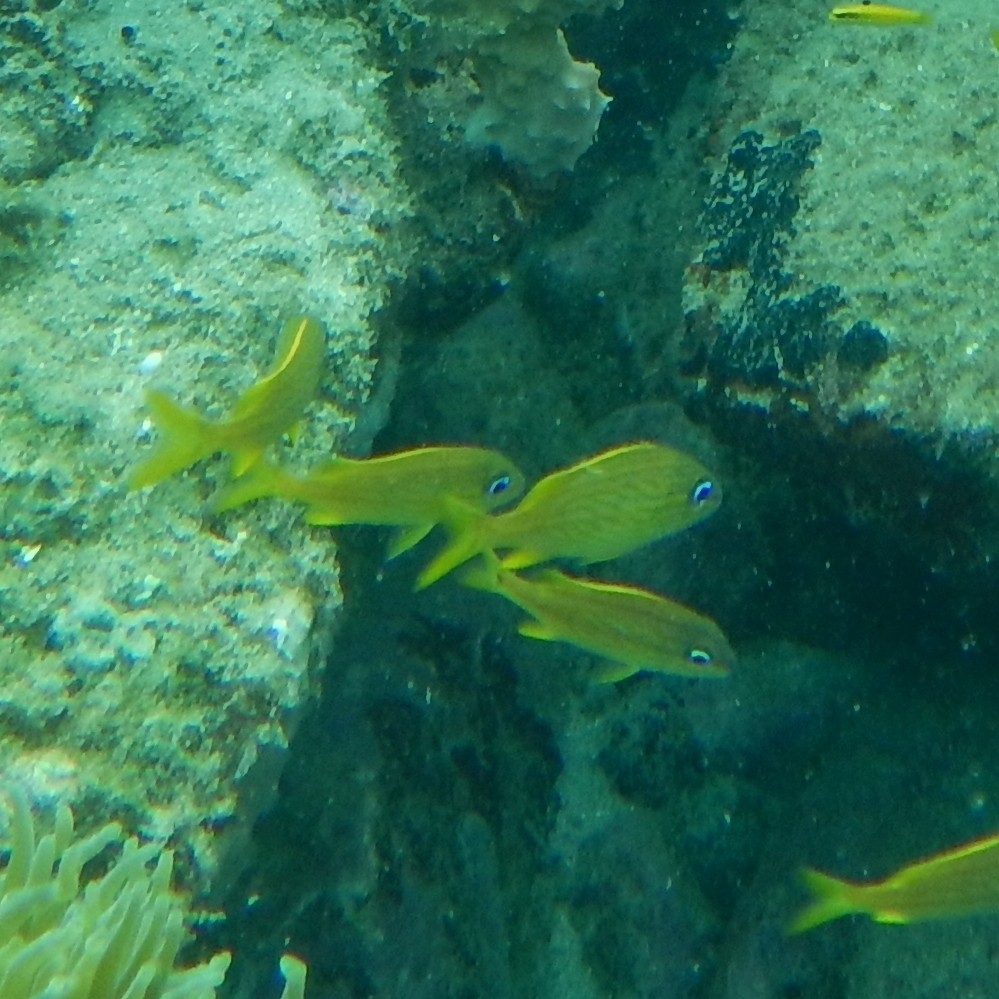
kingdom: Animalia
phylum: Chordata
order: Perciformes
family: Haemulidae
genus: Haemulon
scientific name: Haemulon flavolineatum
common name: French grunt
